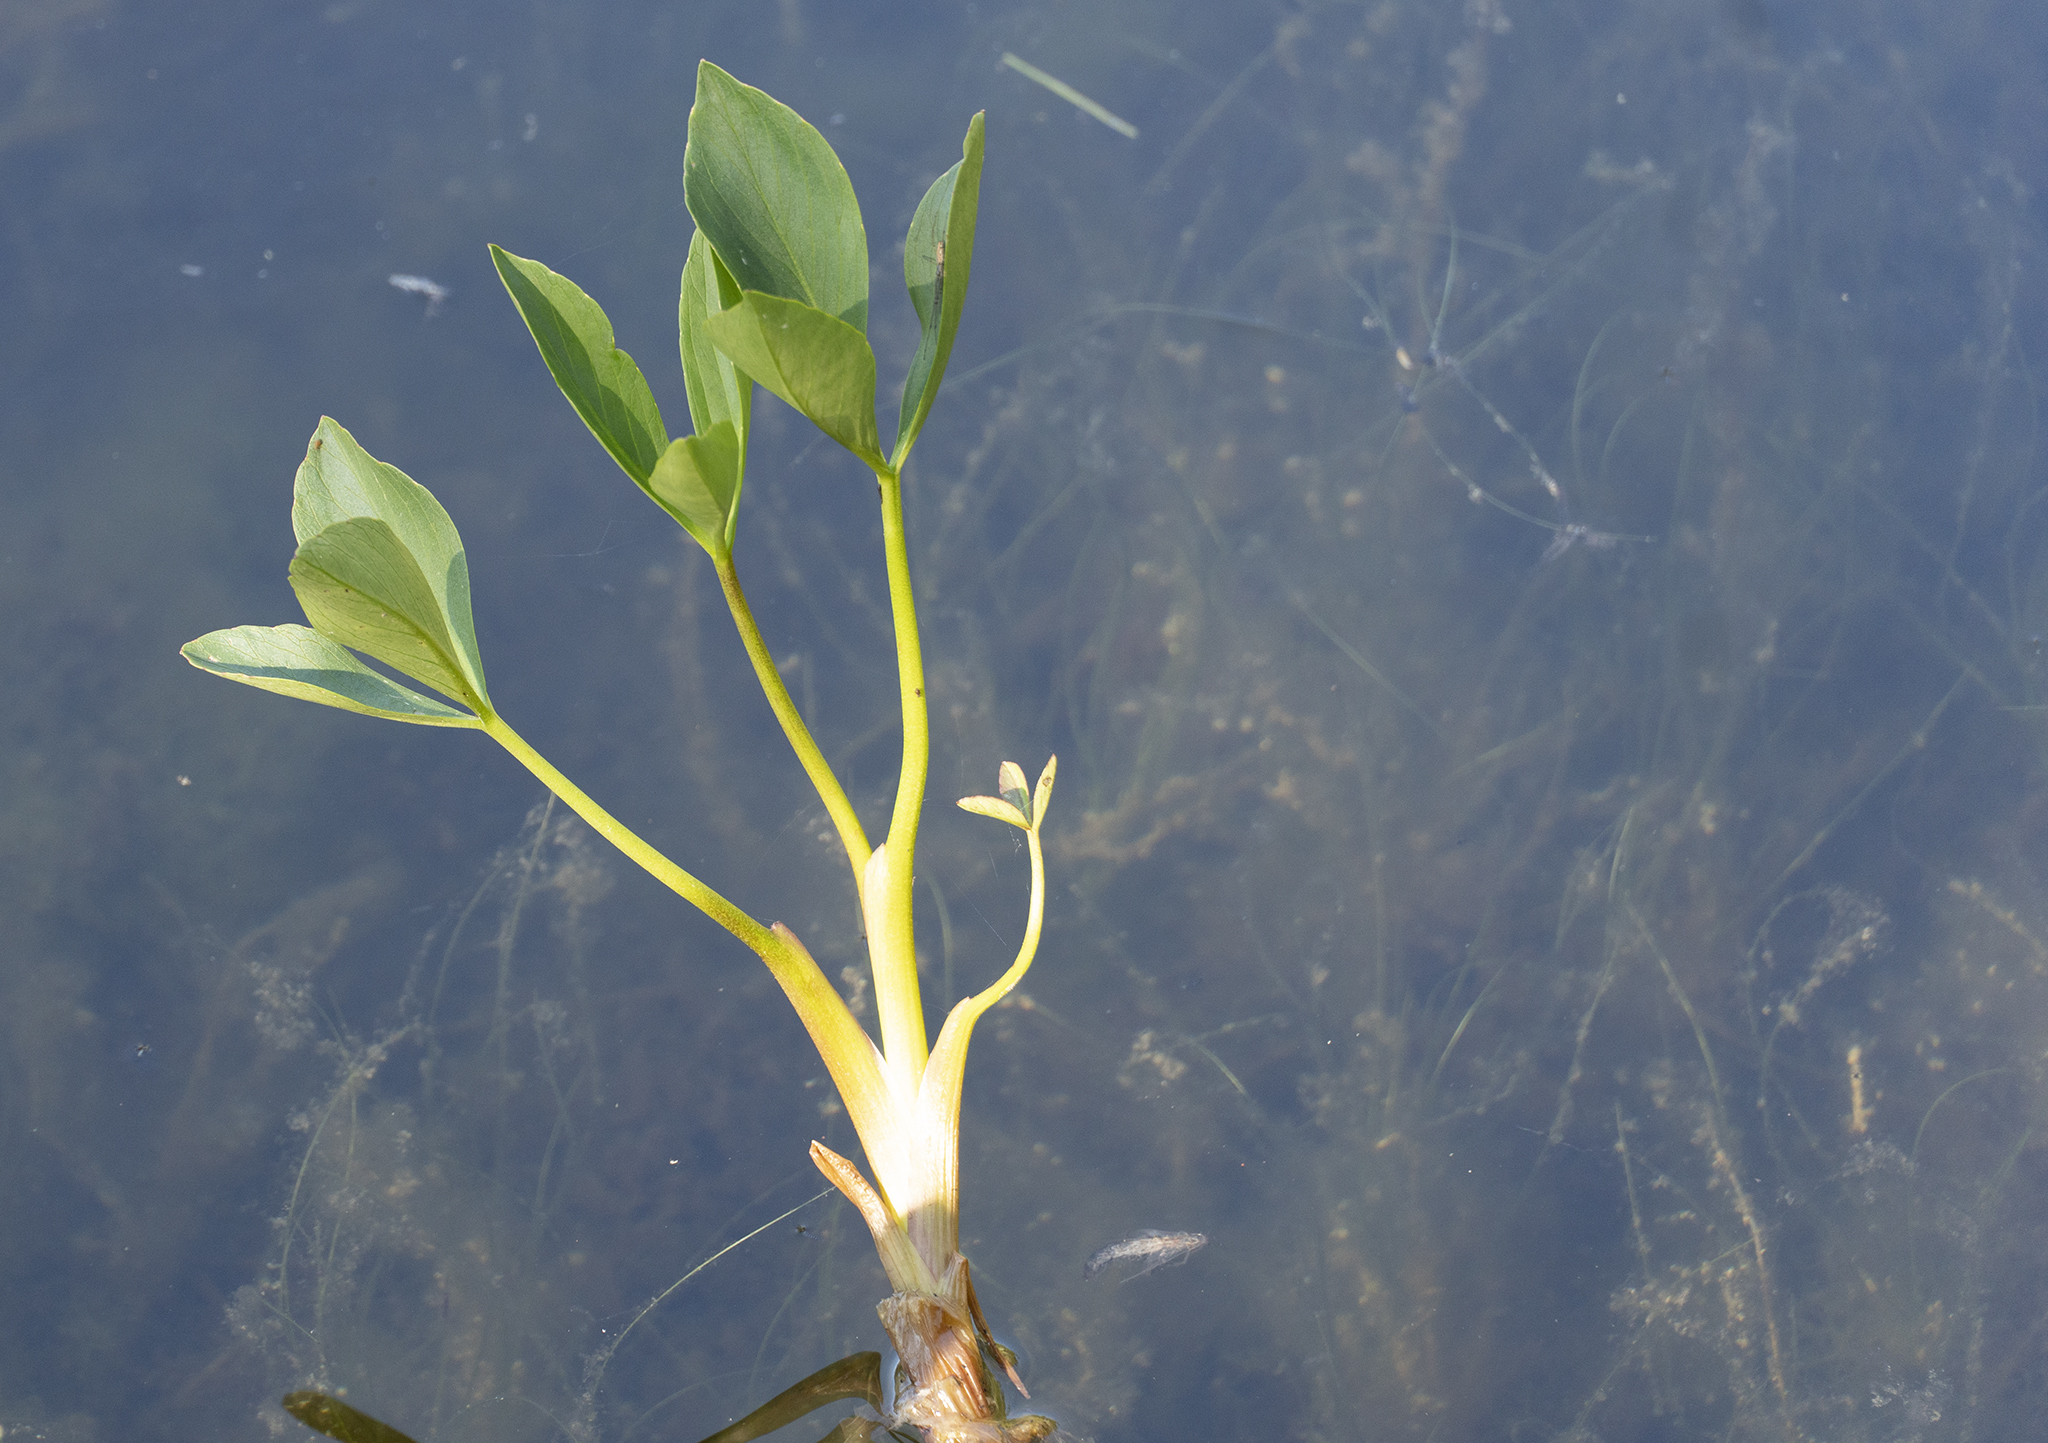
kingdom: Plantae
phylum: Tracheophyta
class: Magnoliopsida
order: Asterales
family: Menyanthaceae
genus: Menyanthes
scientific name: Menyanthes trifoliata
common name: Bogbean
